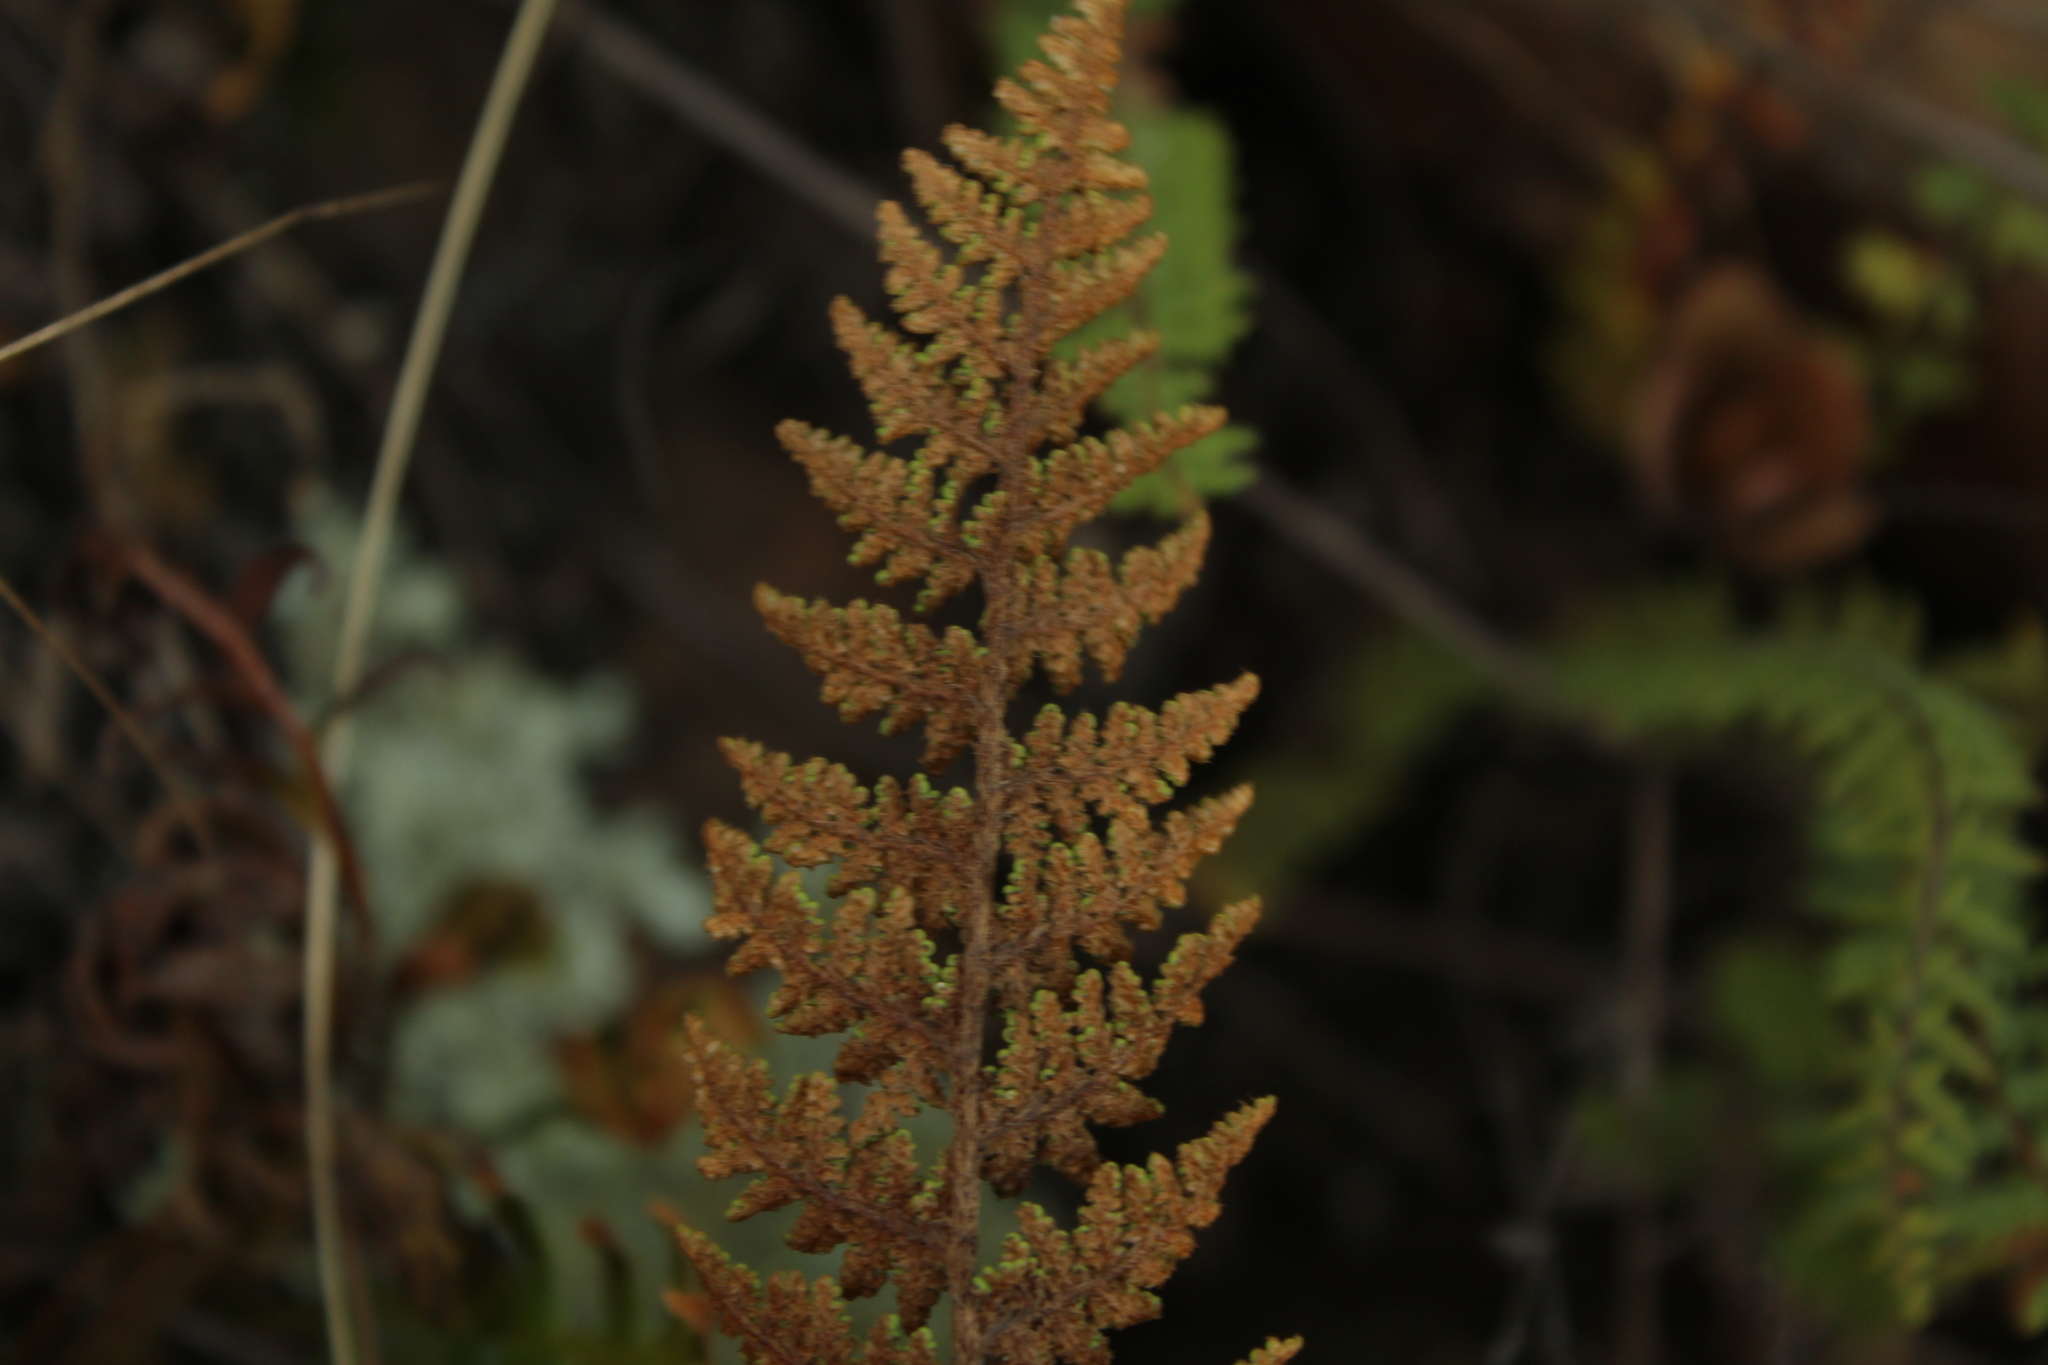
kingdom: Plantae
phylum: Tracheophyta
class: Polypodiopsida
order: Polypodiales
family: Pteridaceae
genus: Myriopteris
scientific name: Myriopteris myriophylla
